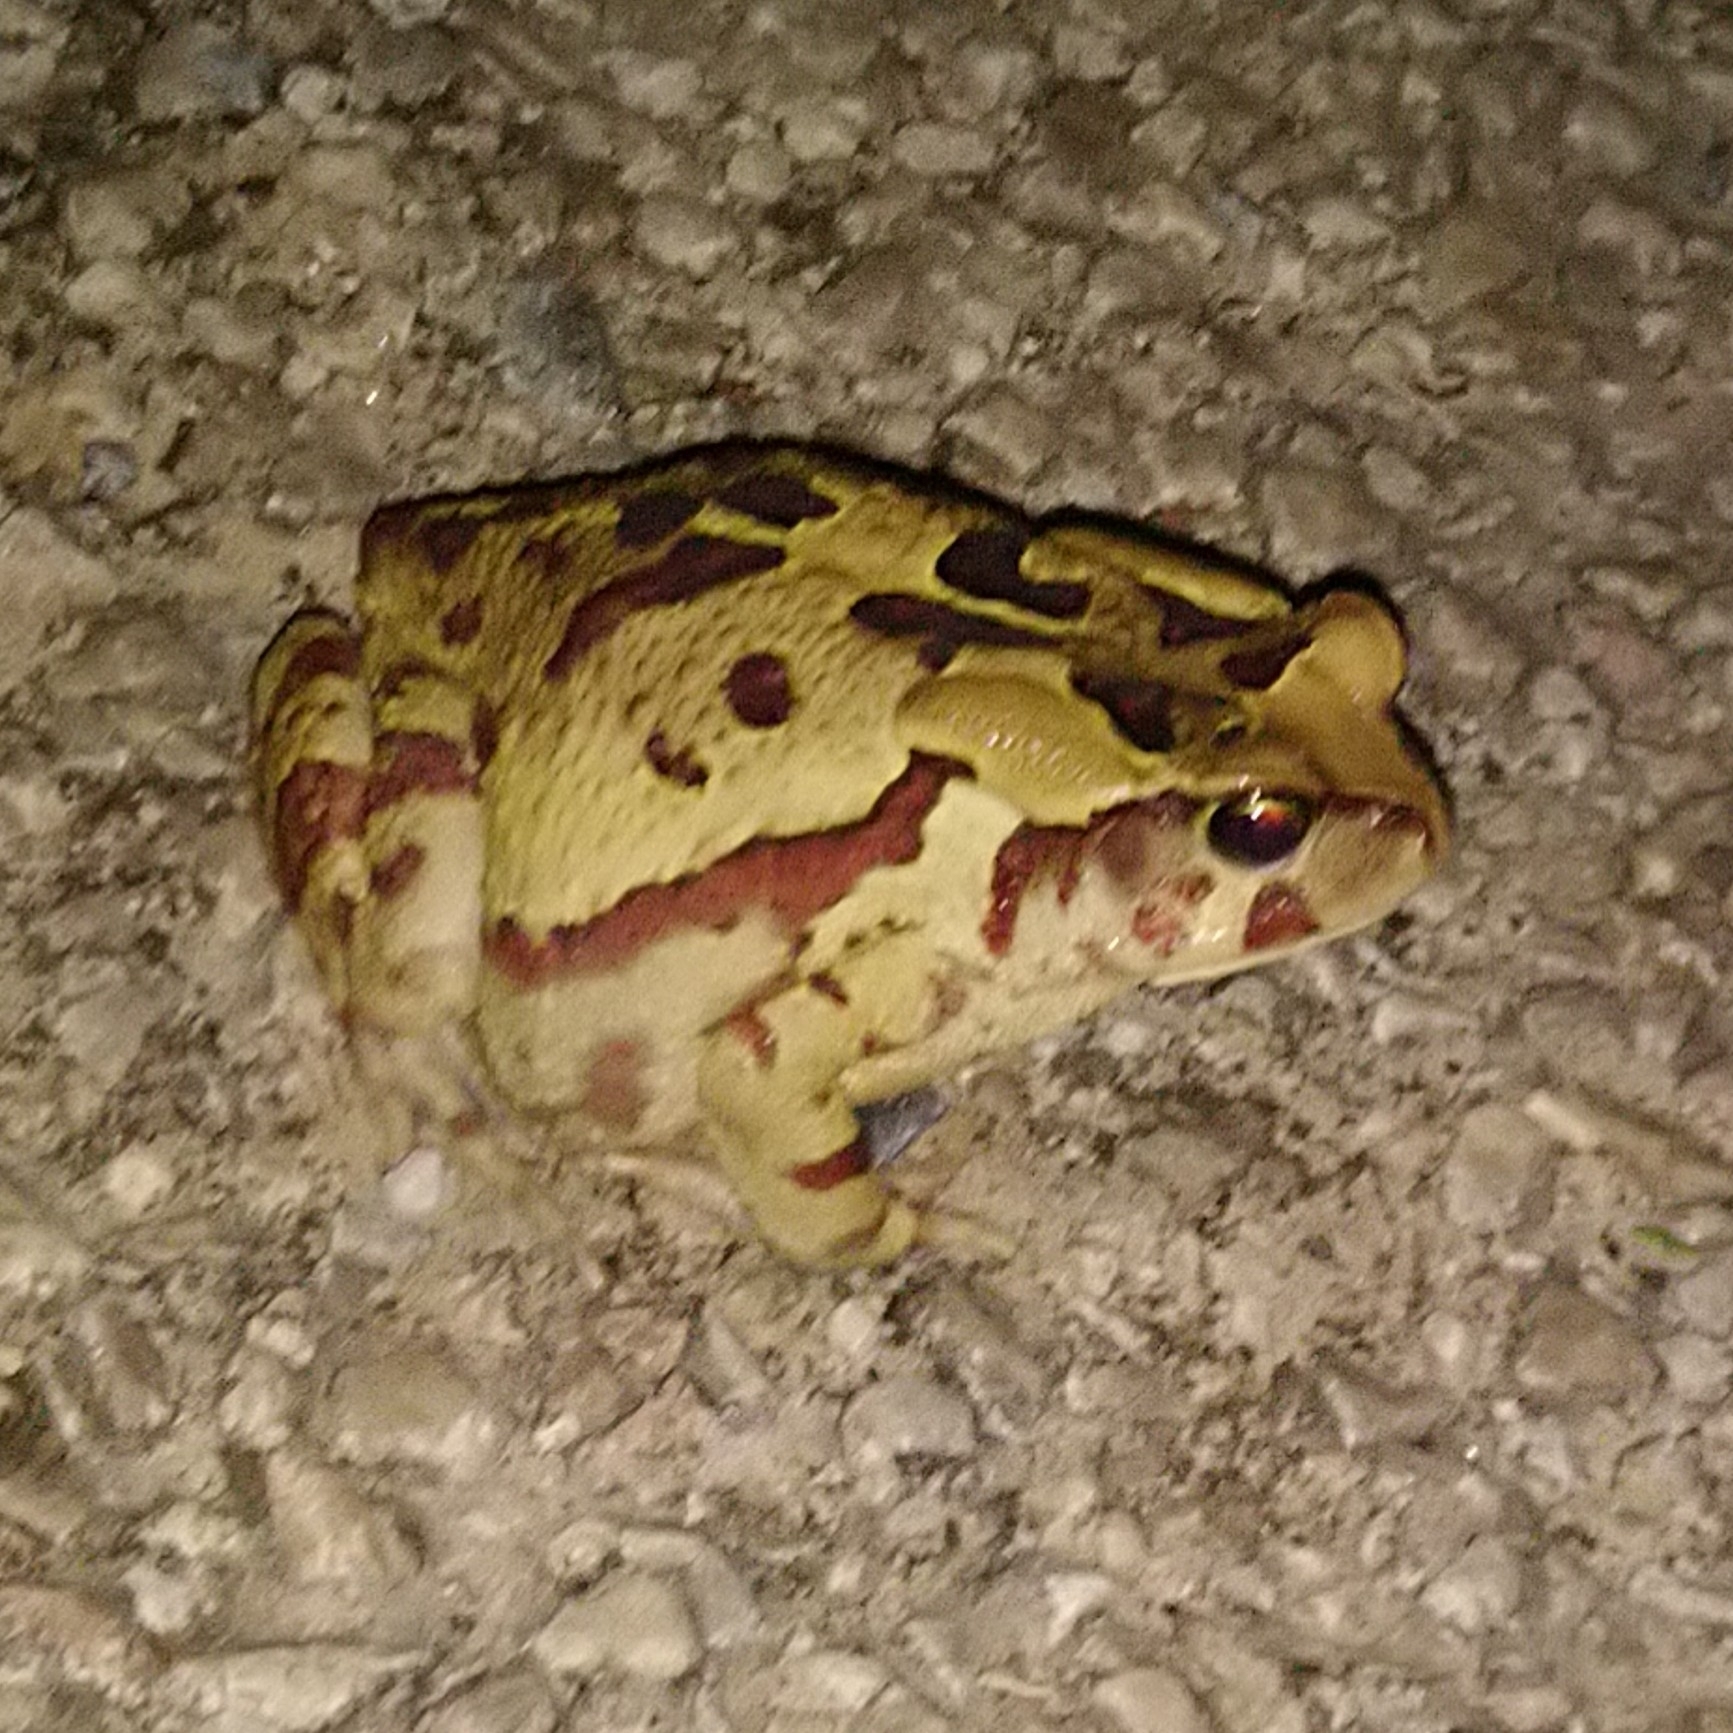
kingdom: Animalia
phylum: Chordata
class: Amphibia
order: Anura
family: Bufonidae
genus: Sclerophrys
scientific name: Sclerophrys pardalis
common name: Eastern leopard toad
